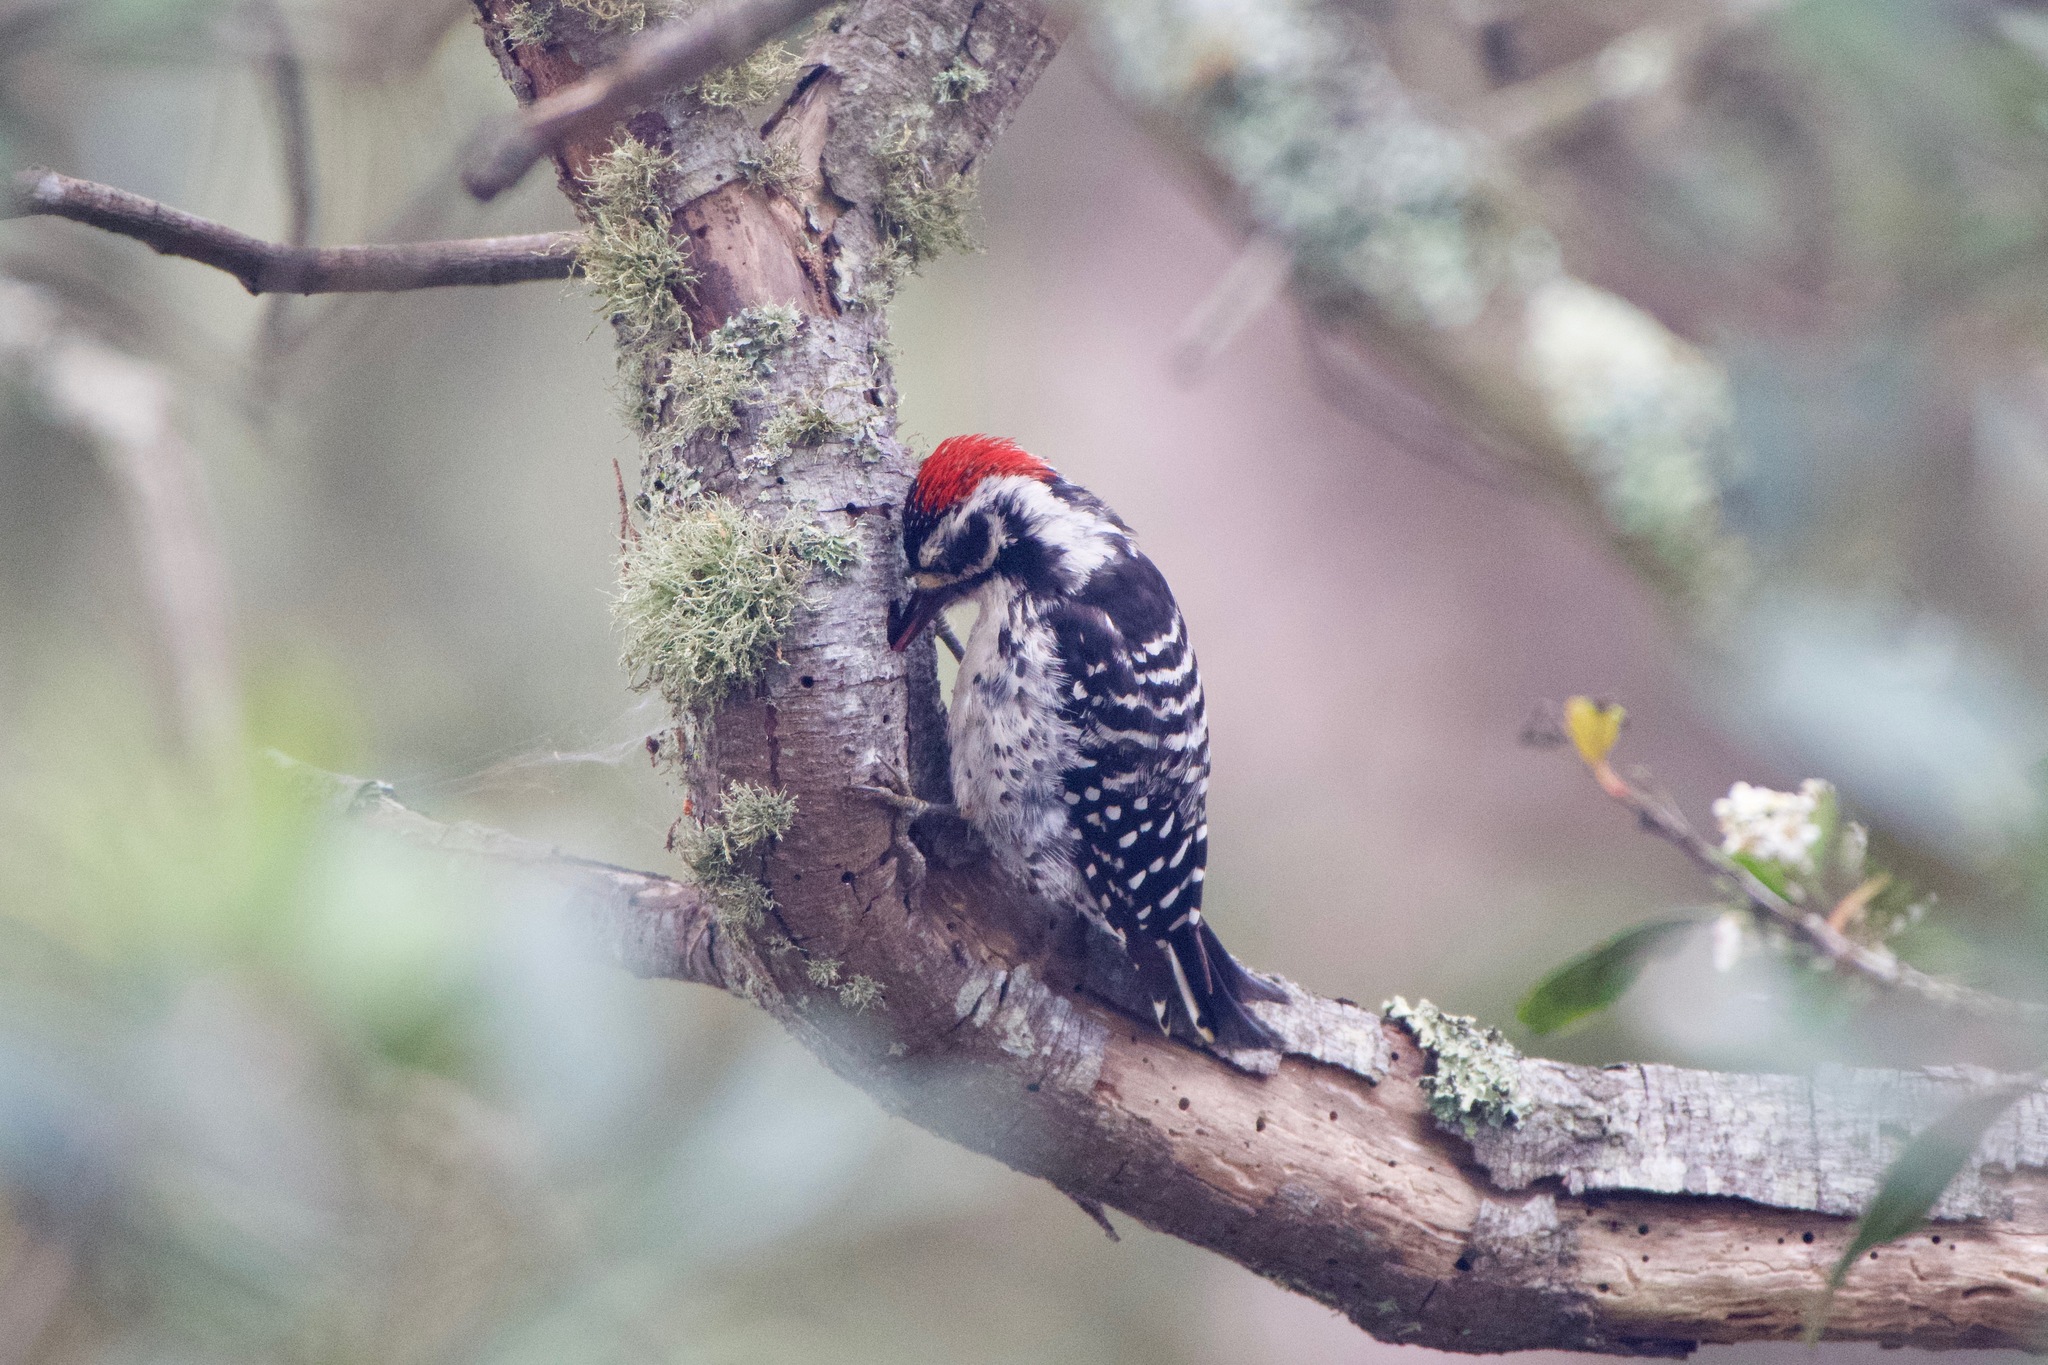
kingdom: Animalia
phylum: Chordata
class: Aves
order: Piciformes
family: Picidae
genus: Dryobates
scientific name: Dryobates nuttallii
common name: Nuttall's woodpecker
